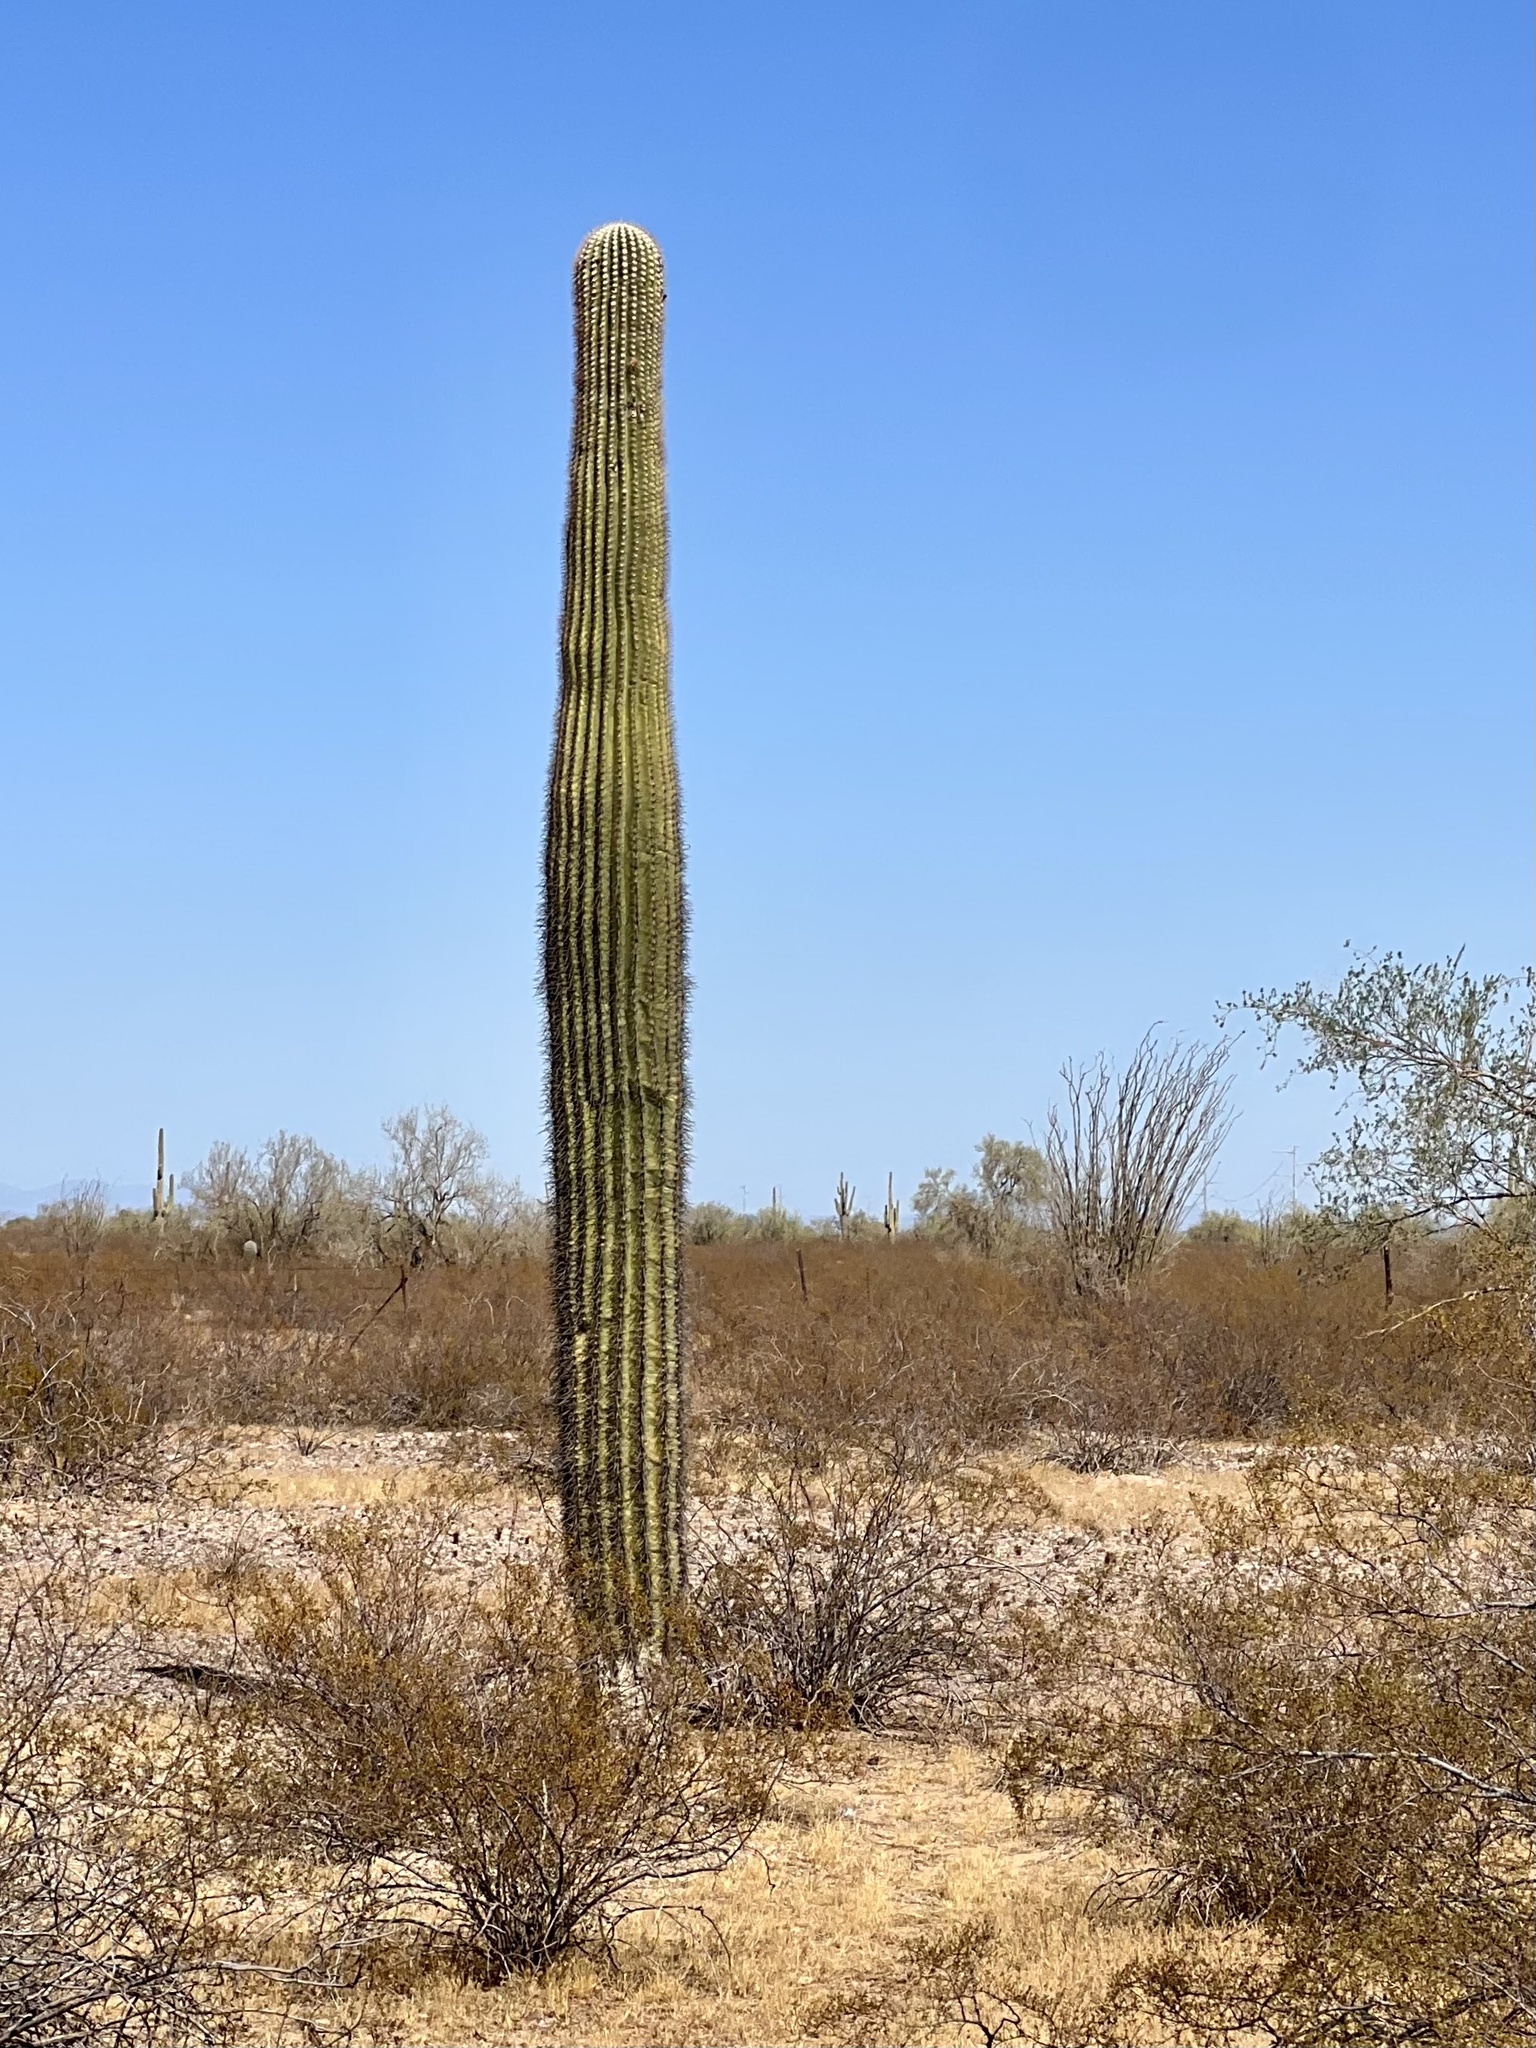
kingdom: Plantae
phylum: Tracheophyta
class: Magnoliopsida
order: Caryophyllales
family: Cactaceae
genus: Carnegiea
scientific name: Carnegiea gigantea
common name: Saguaro
